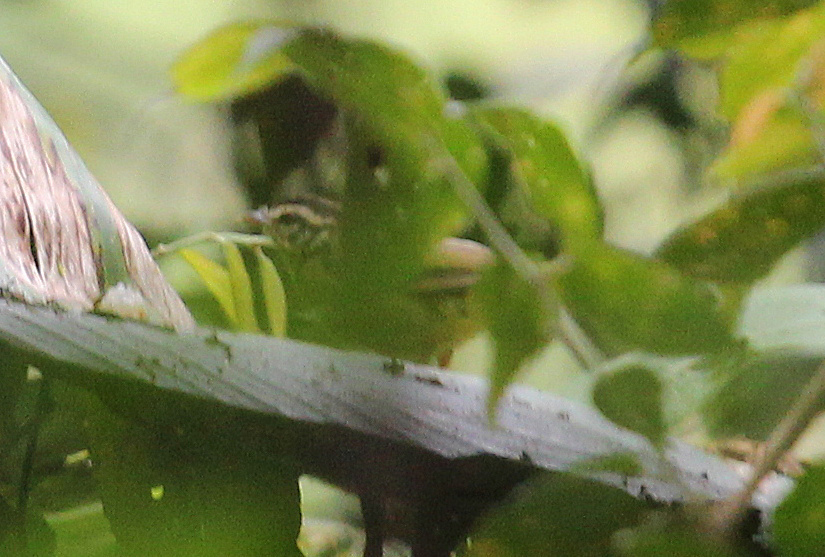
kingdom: Animalia
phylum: Chordata
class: Aves
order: Passeriformes
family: Parulidae
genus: Basileuterus
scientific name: Basileuterus tristriatus
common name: Three-striped warbler
